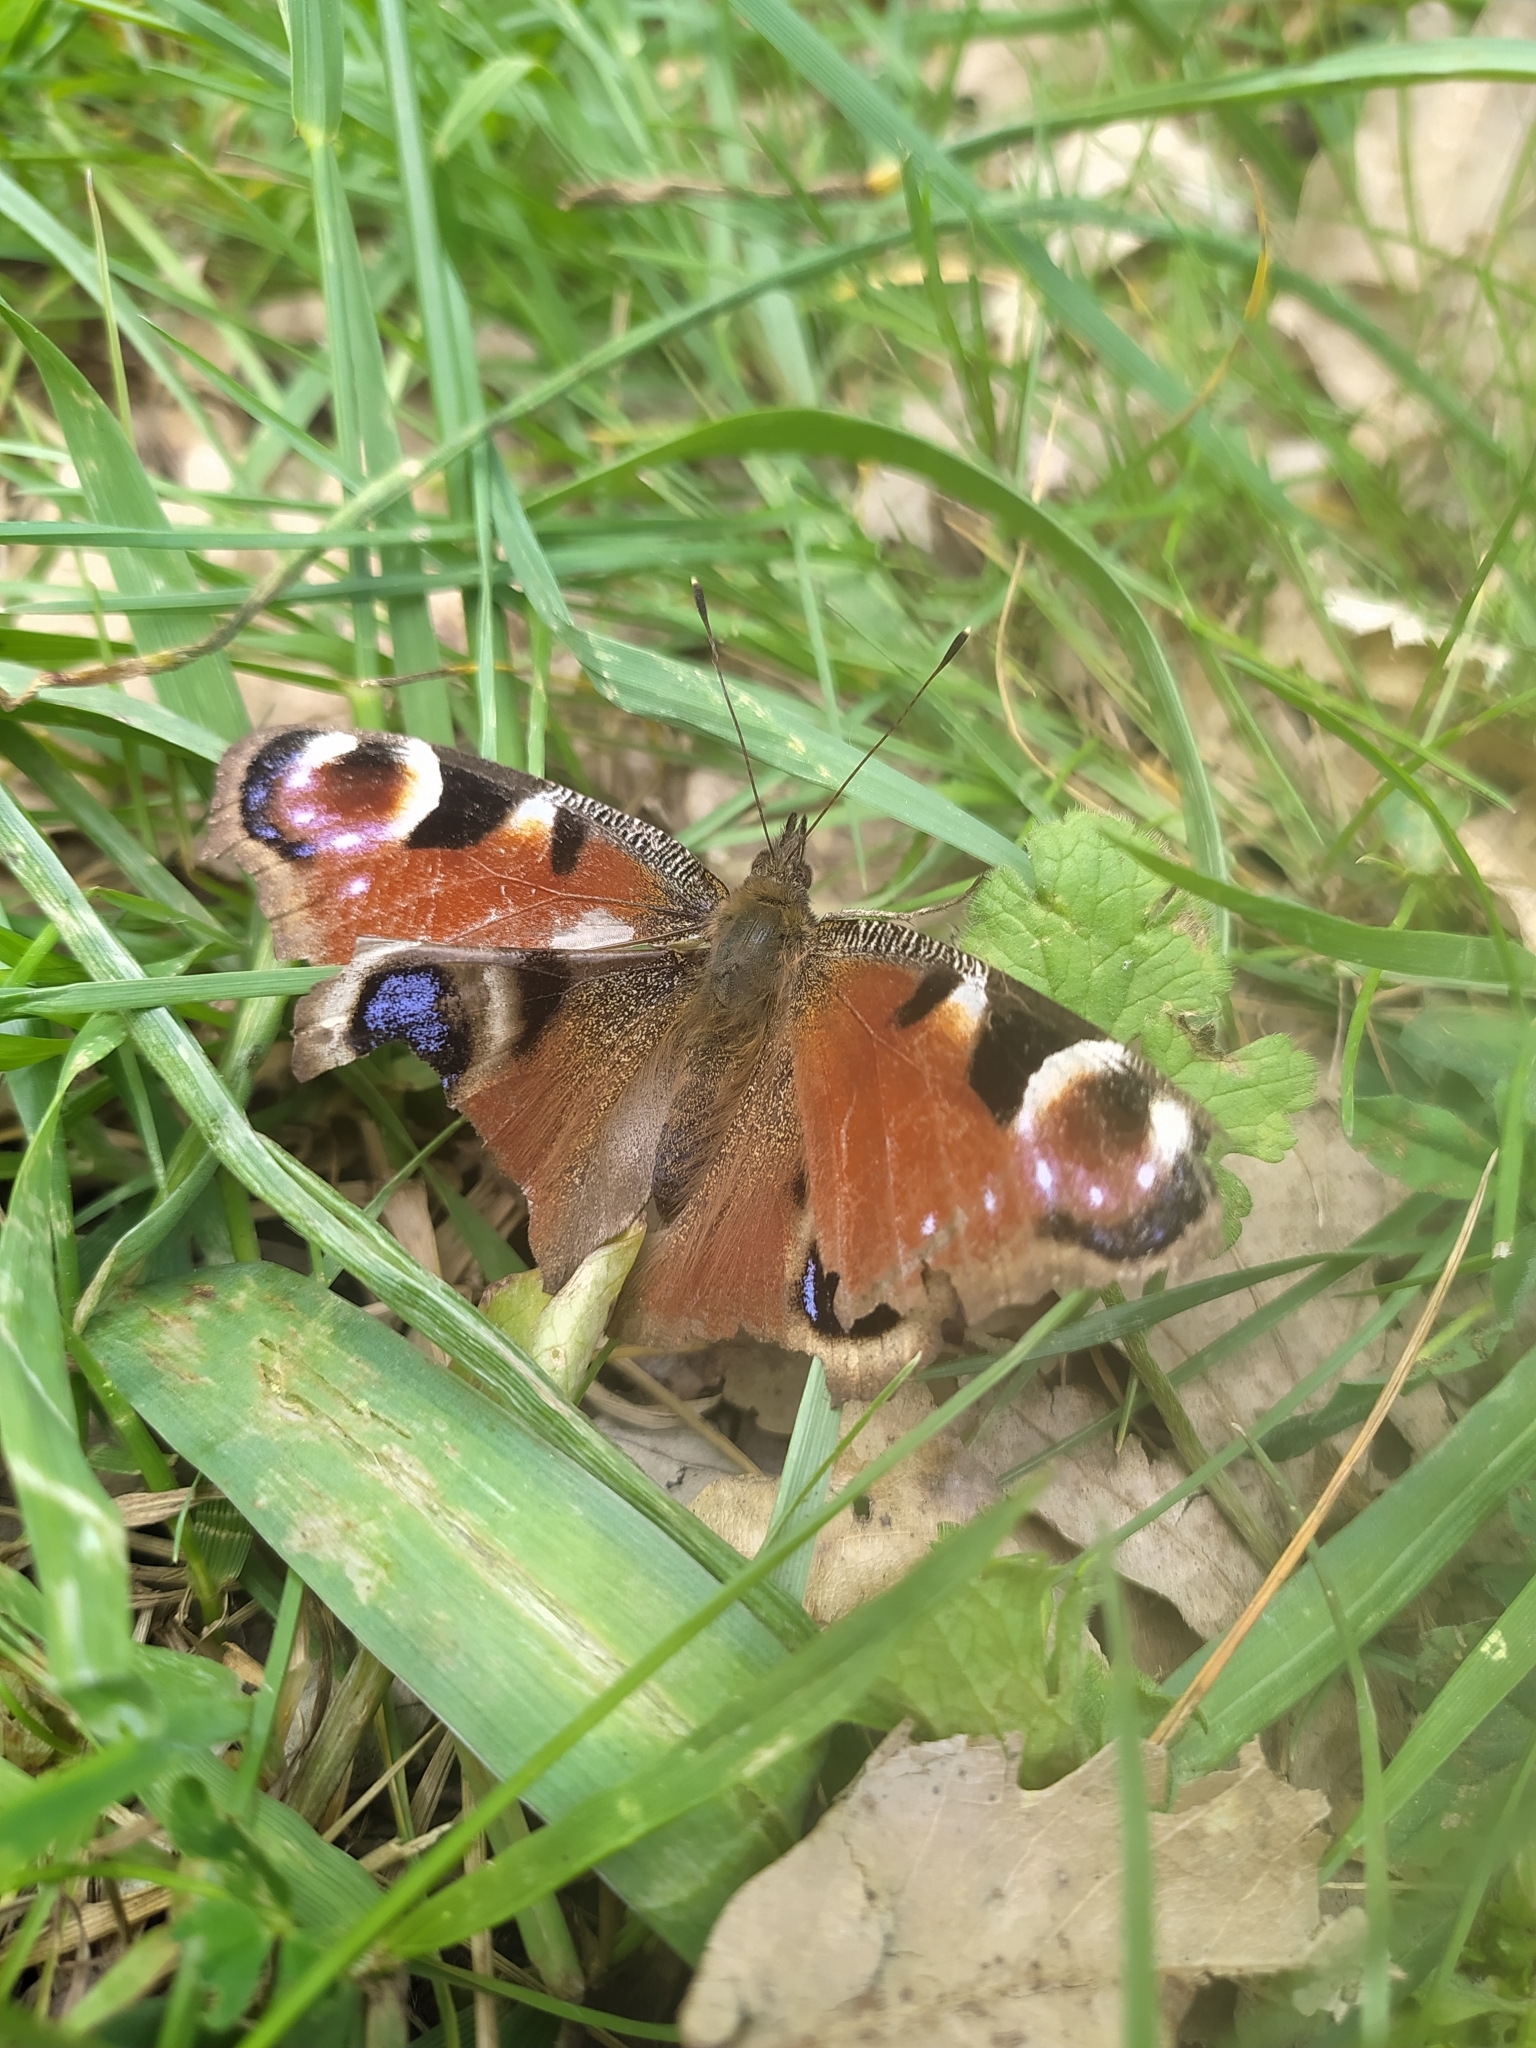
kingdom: Animalia
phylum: Arthropoda
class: Insecta
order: Lepidoptera
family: Nymphalidae
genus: Aglais
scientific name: Aglais io
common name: Peacock
